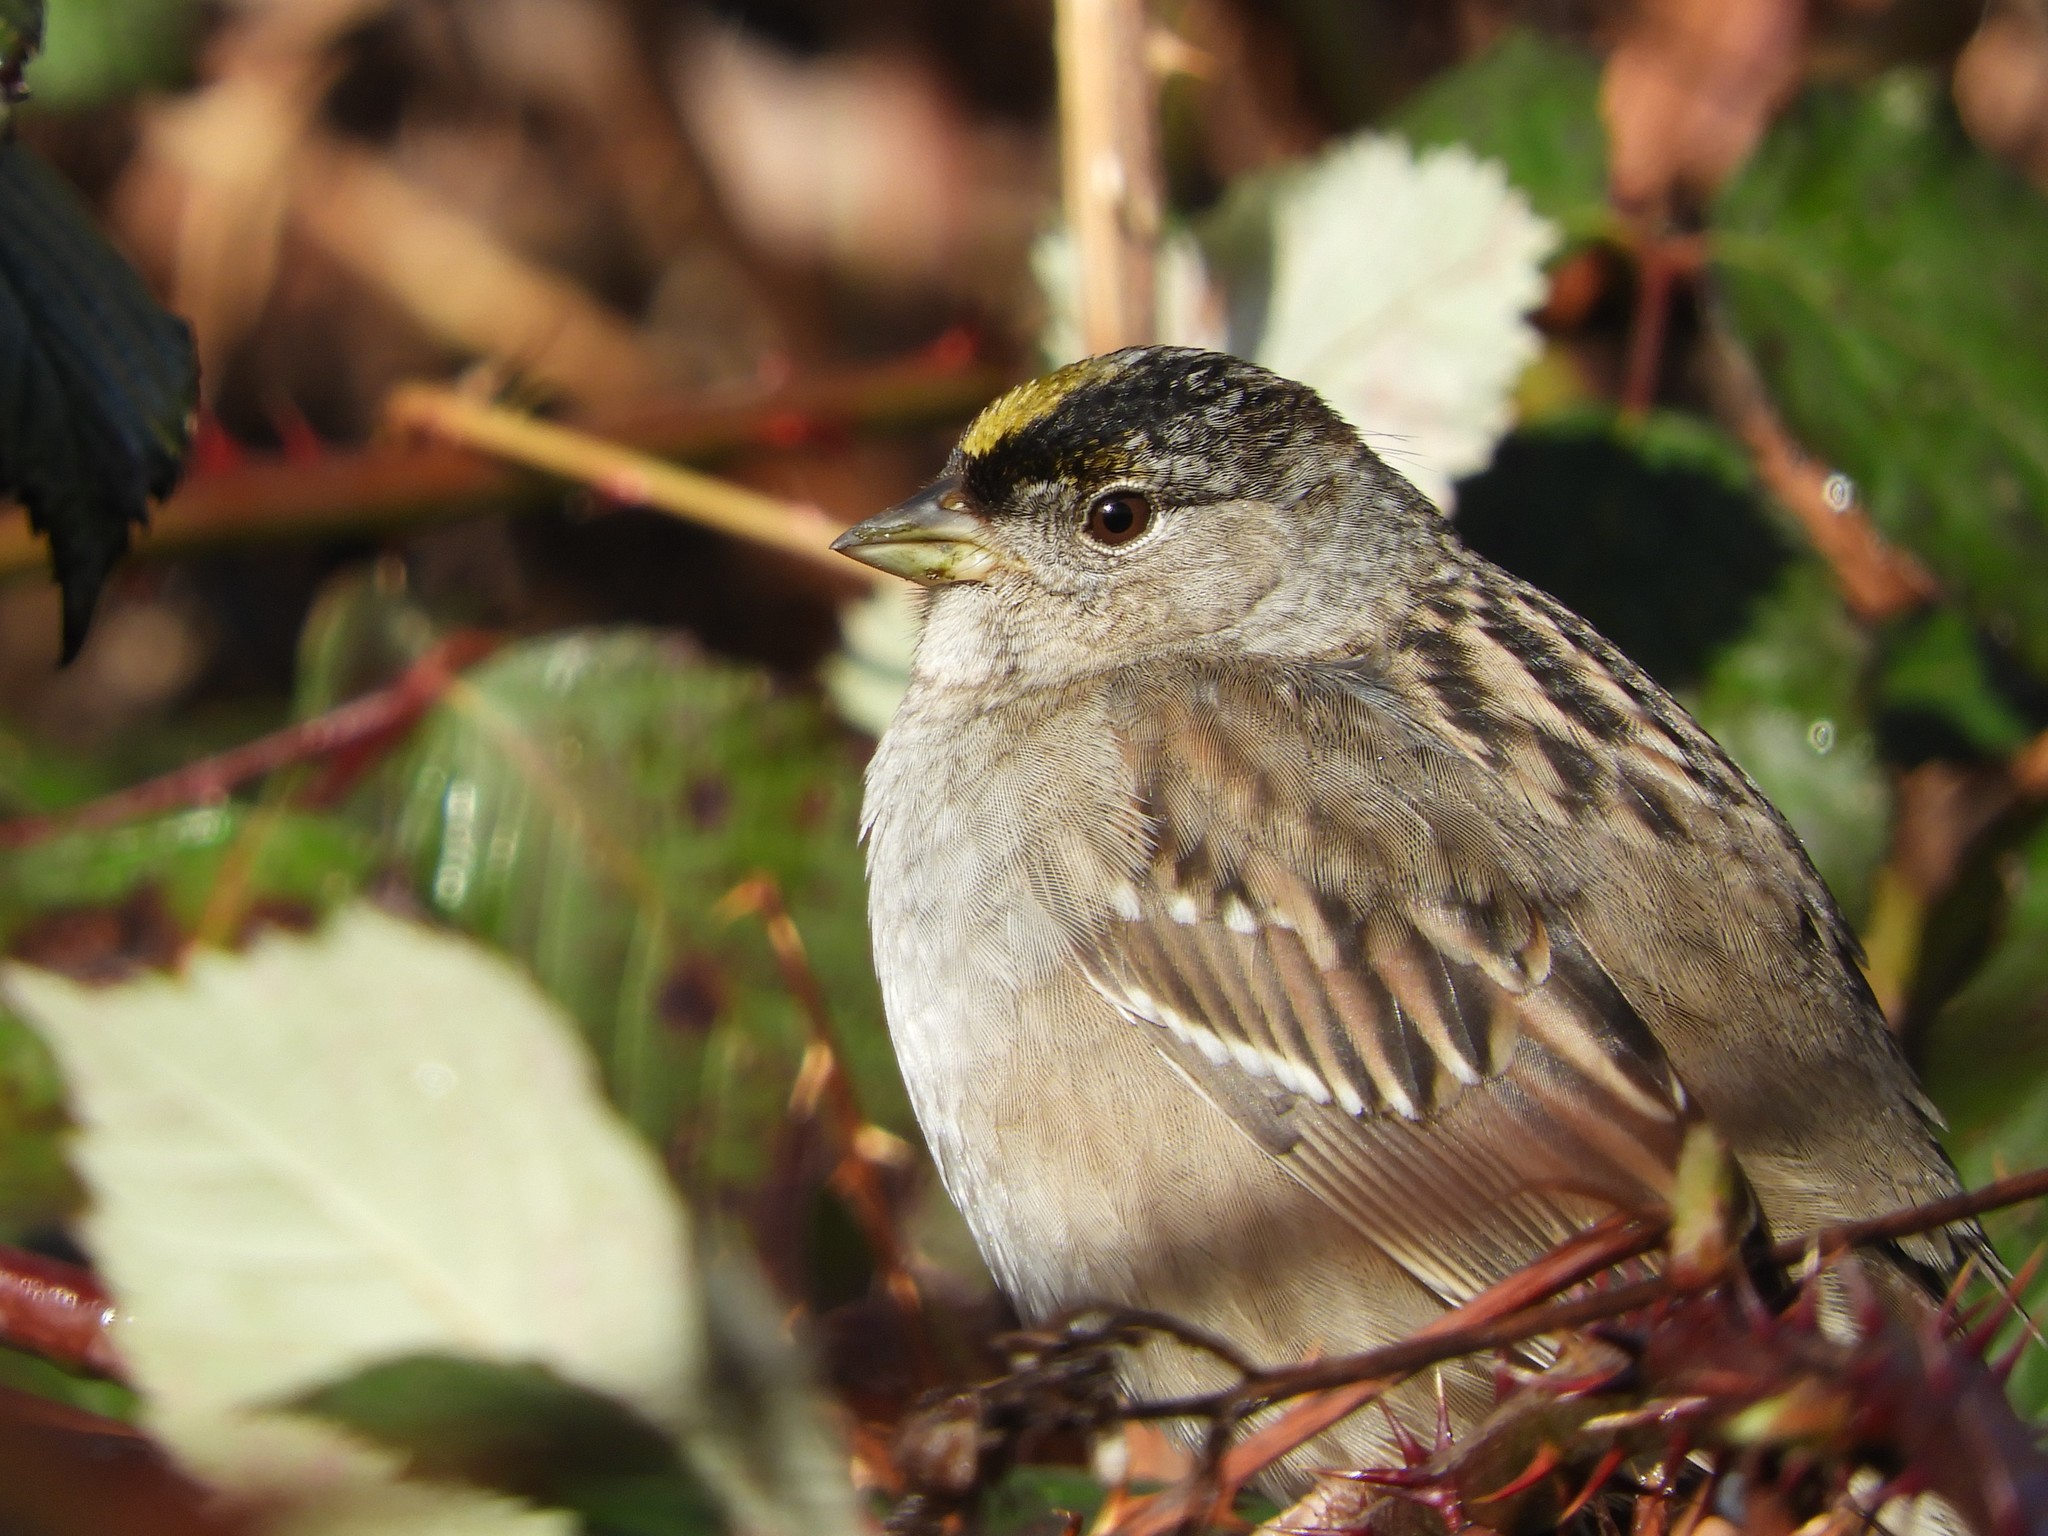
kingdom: Animalia
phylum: Chordata
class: Aves
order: Passeriformes
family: Passerellidae
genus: Zonotrichia
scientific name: Zonotrichia atricapilla
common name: Golden-crowned sparrow
